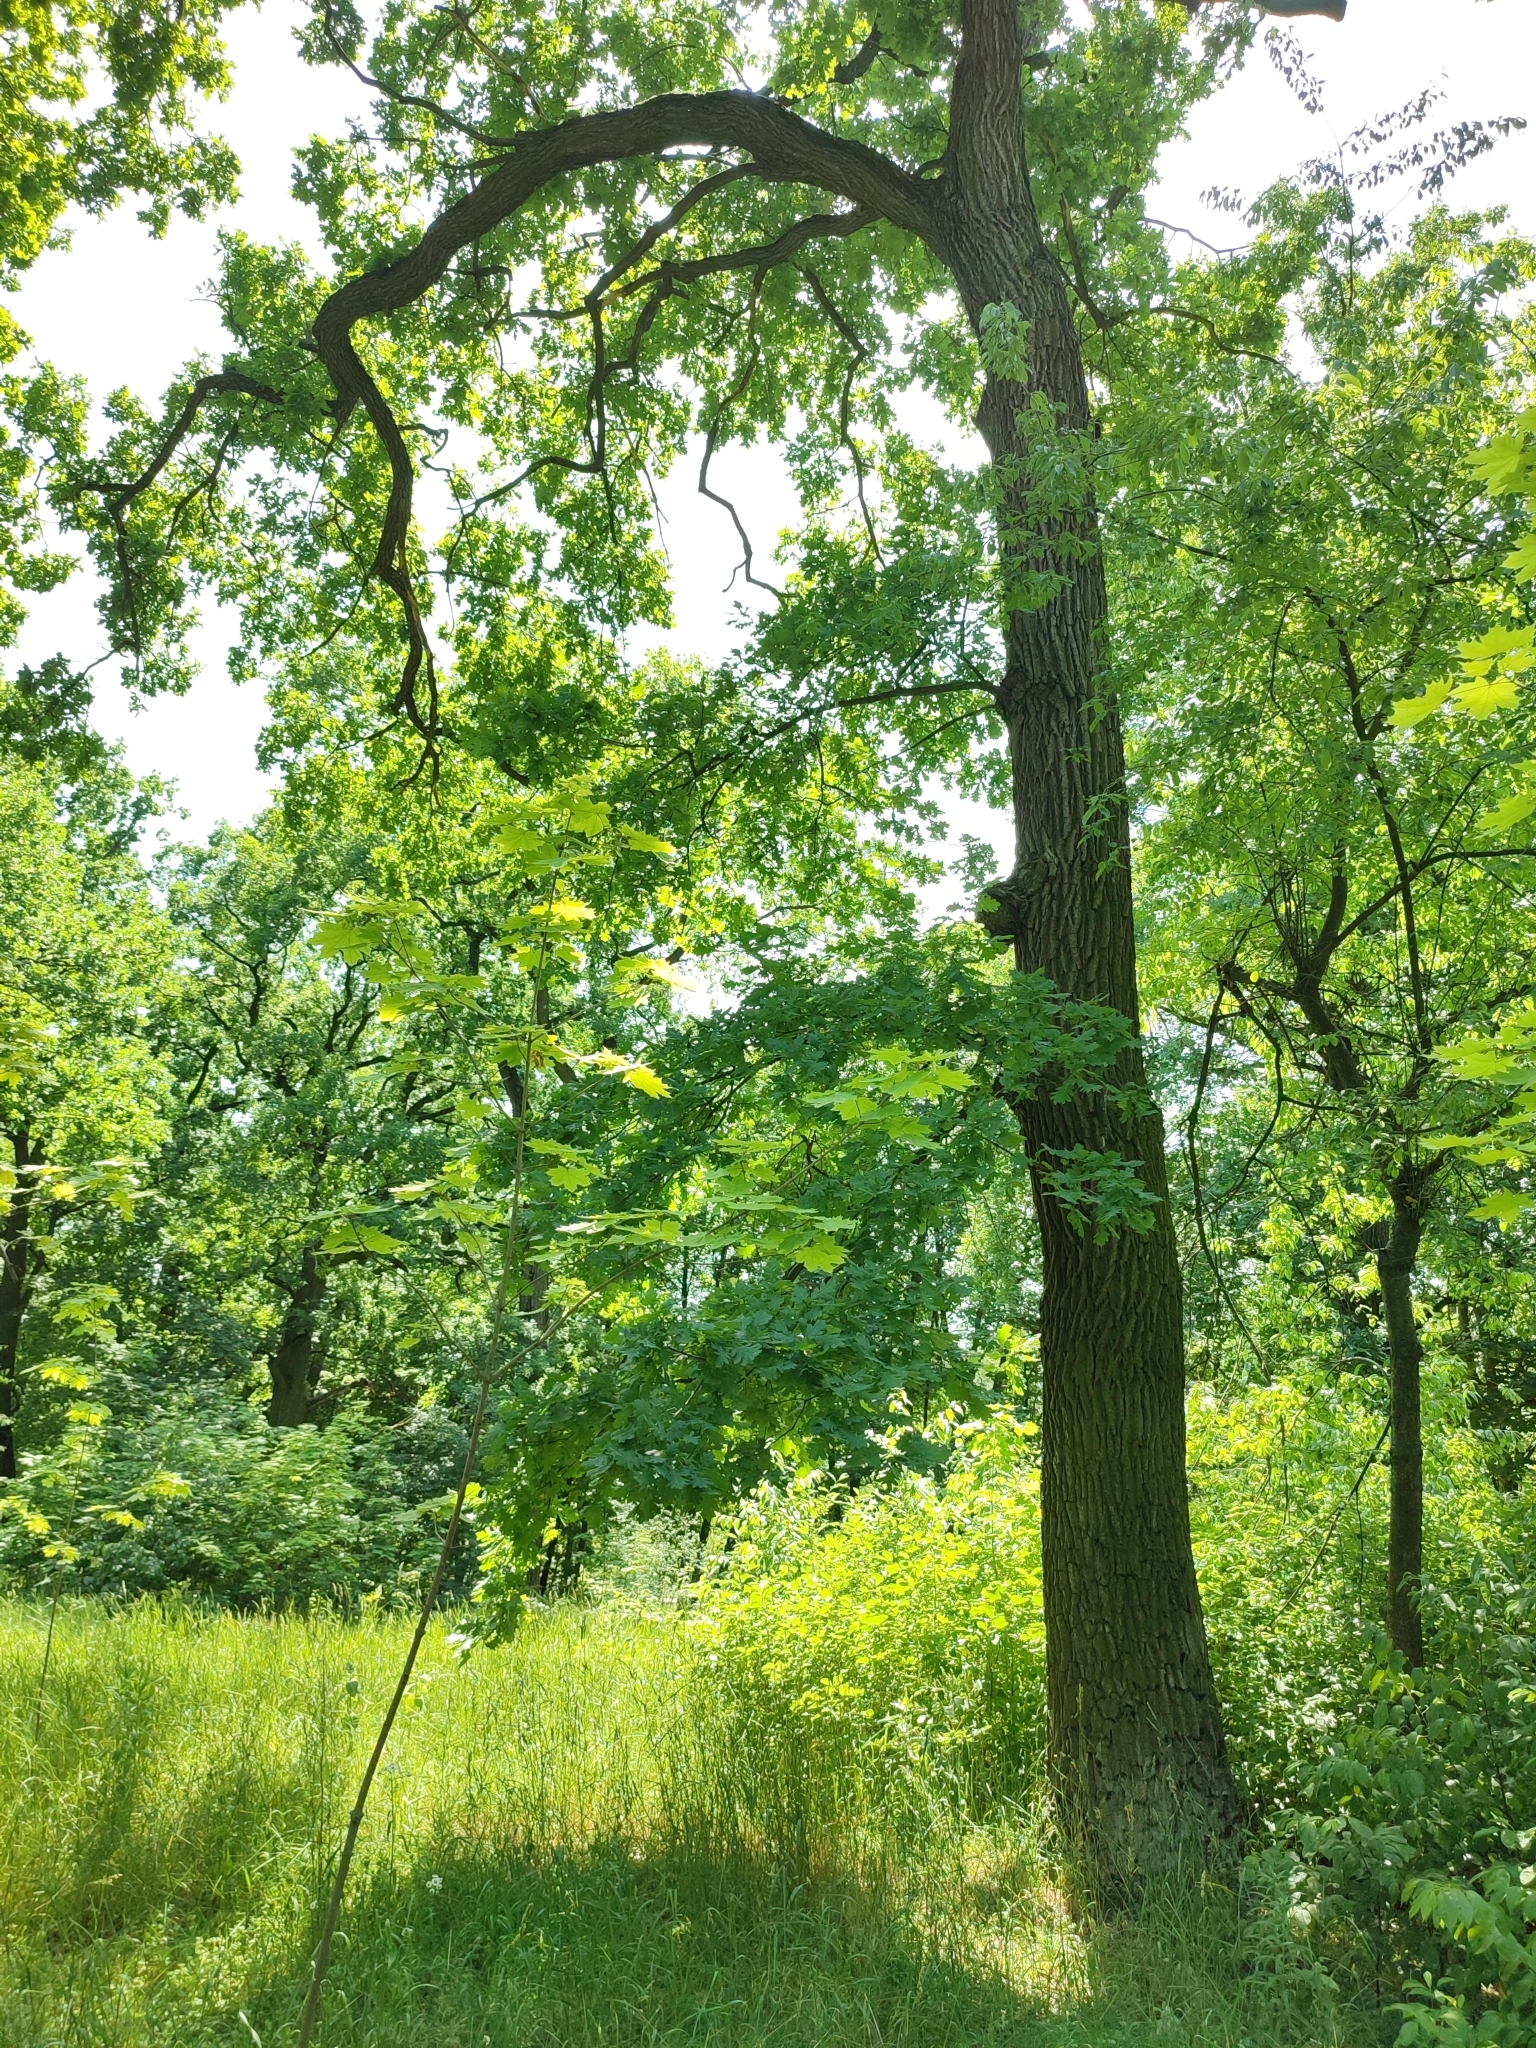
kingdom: Plantae
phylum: Tracheophyta
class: Magnoliopsida
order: Fagales
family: Fagaceae
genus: Quercus
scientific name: Quercus robur
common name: Pedunculate oak
